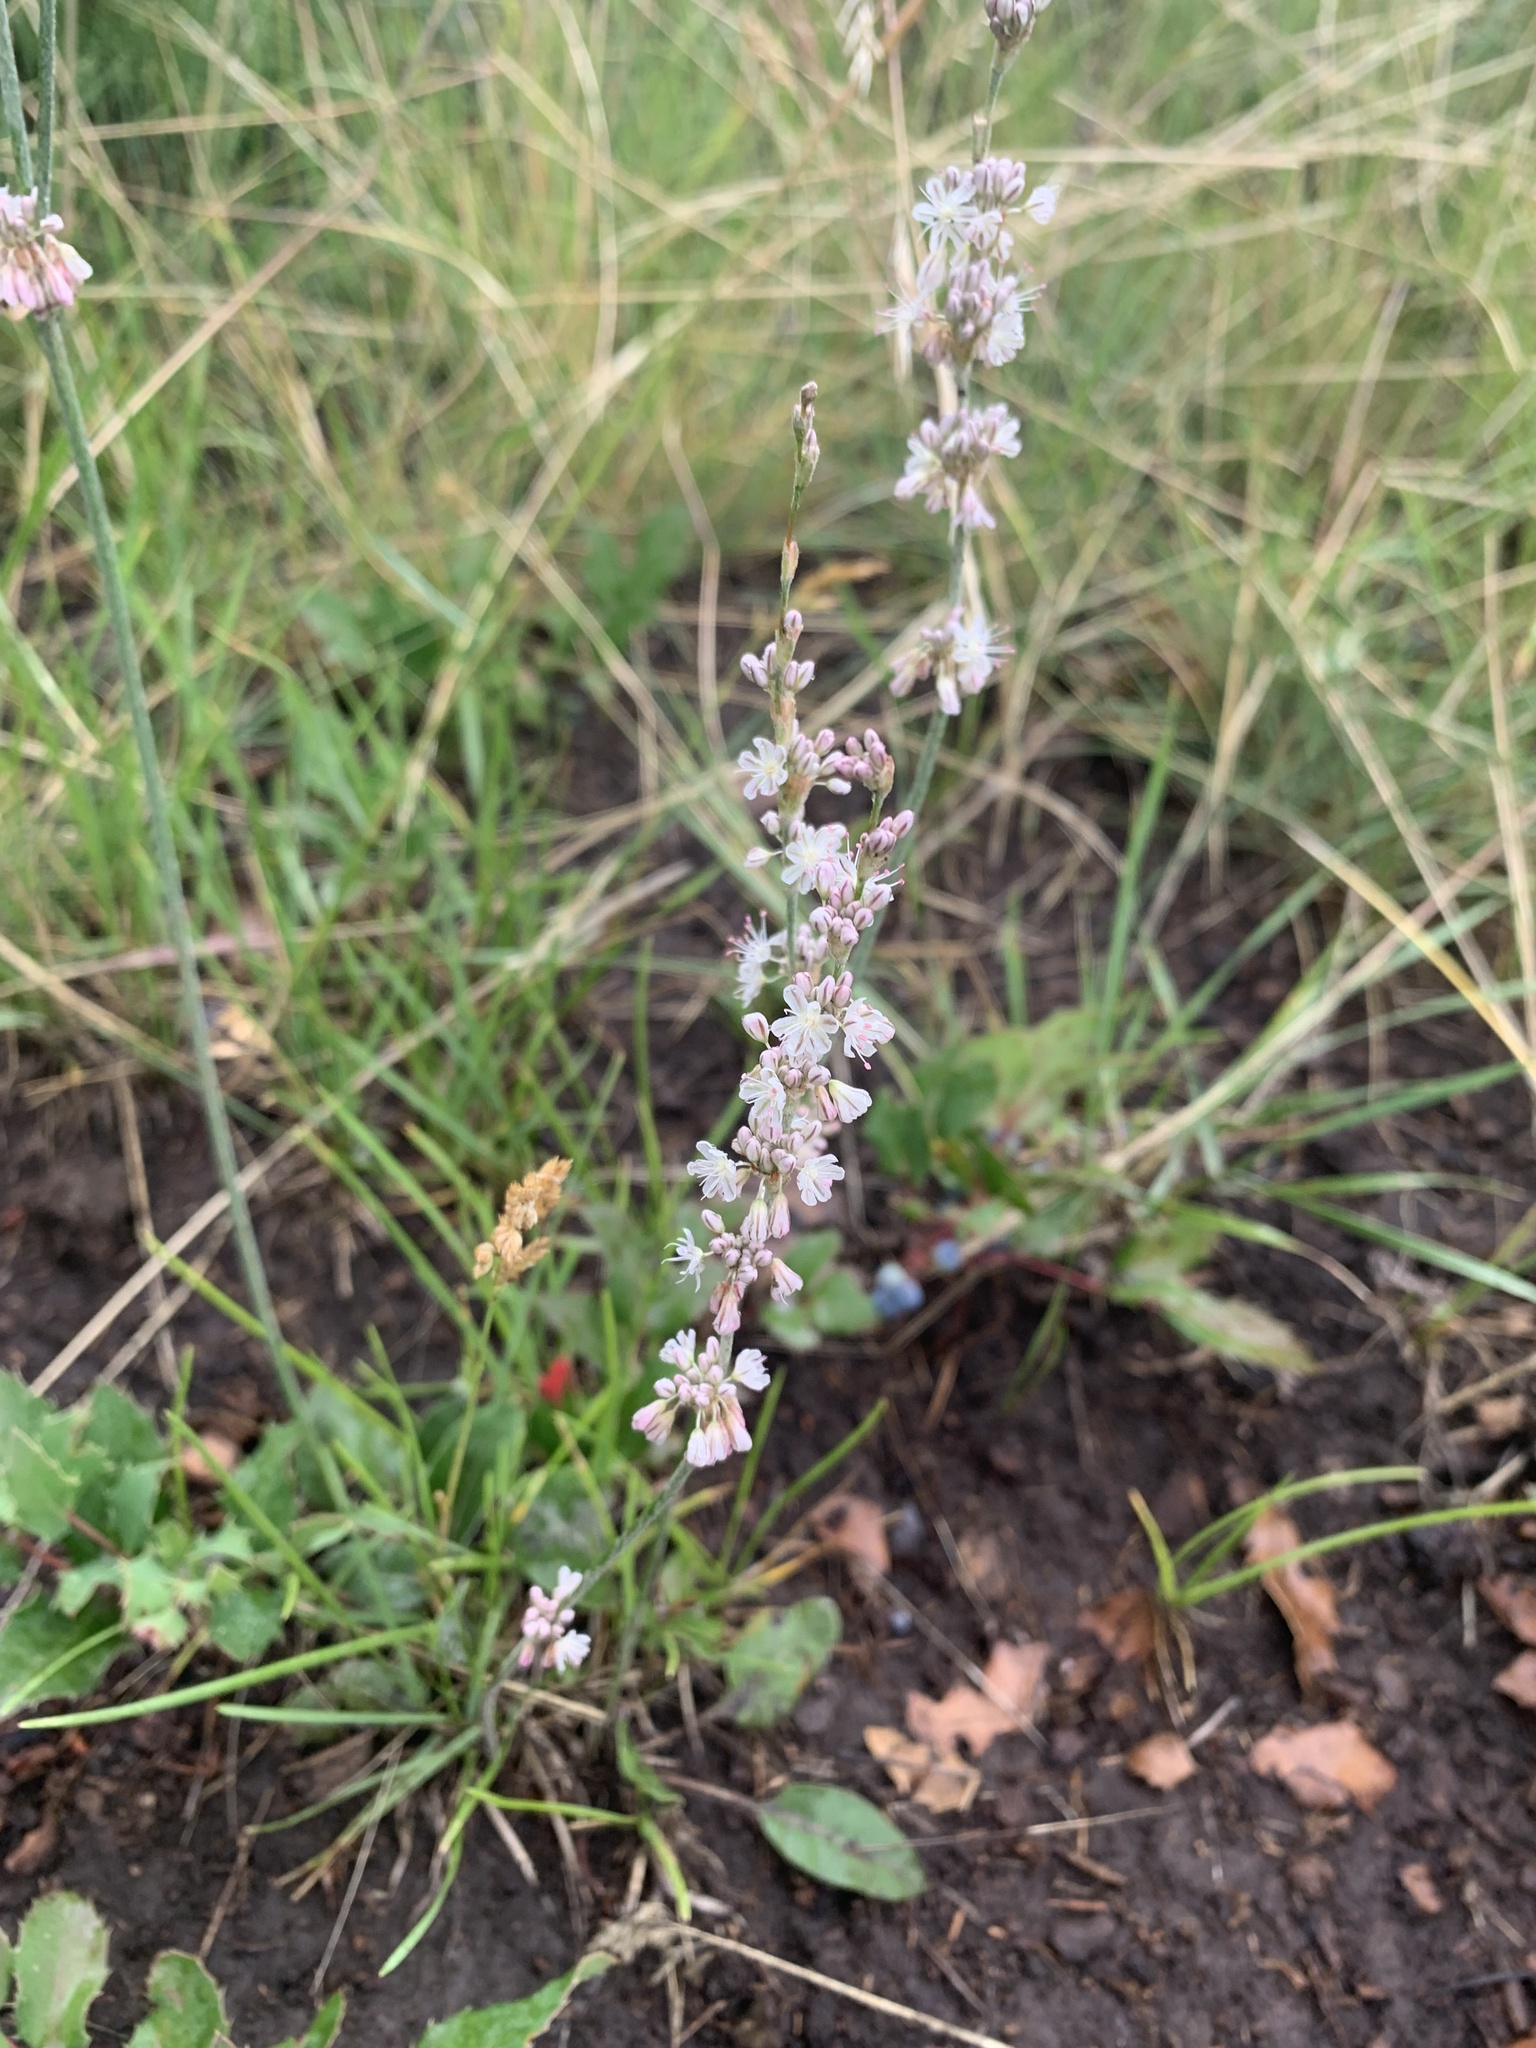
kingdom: Plantae
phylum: Tracheophyta
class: Magnoliopsida
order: Caryophyllales
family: Polygonaceae
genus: Eriogonum
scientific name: Eriogonum racemosum
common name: Redroot wild buckwheat
